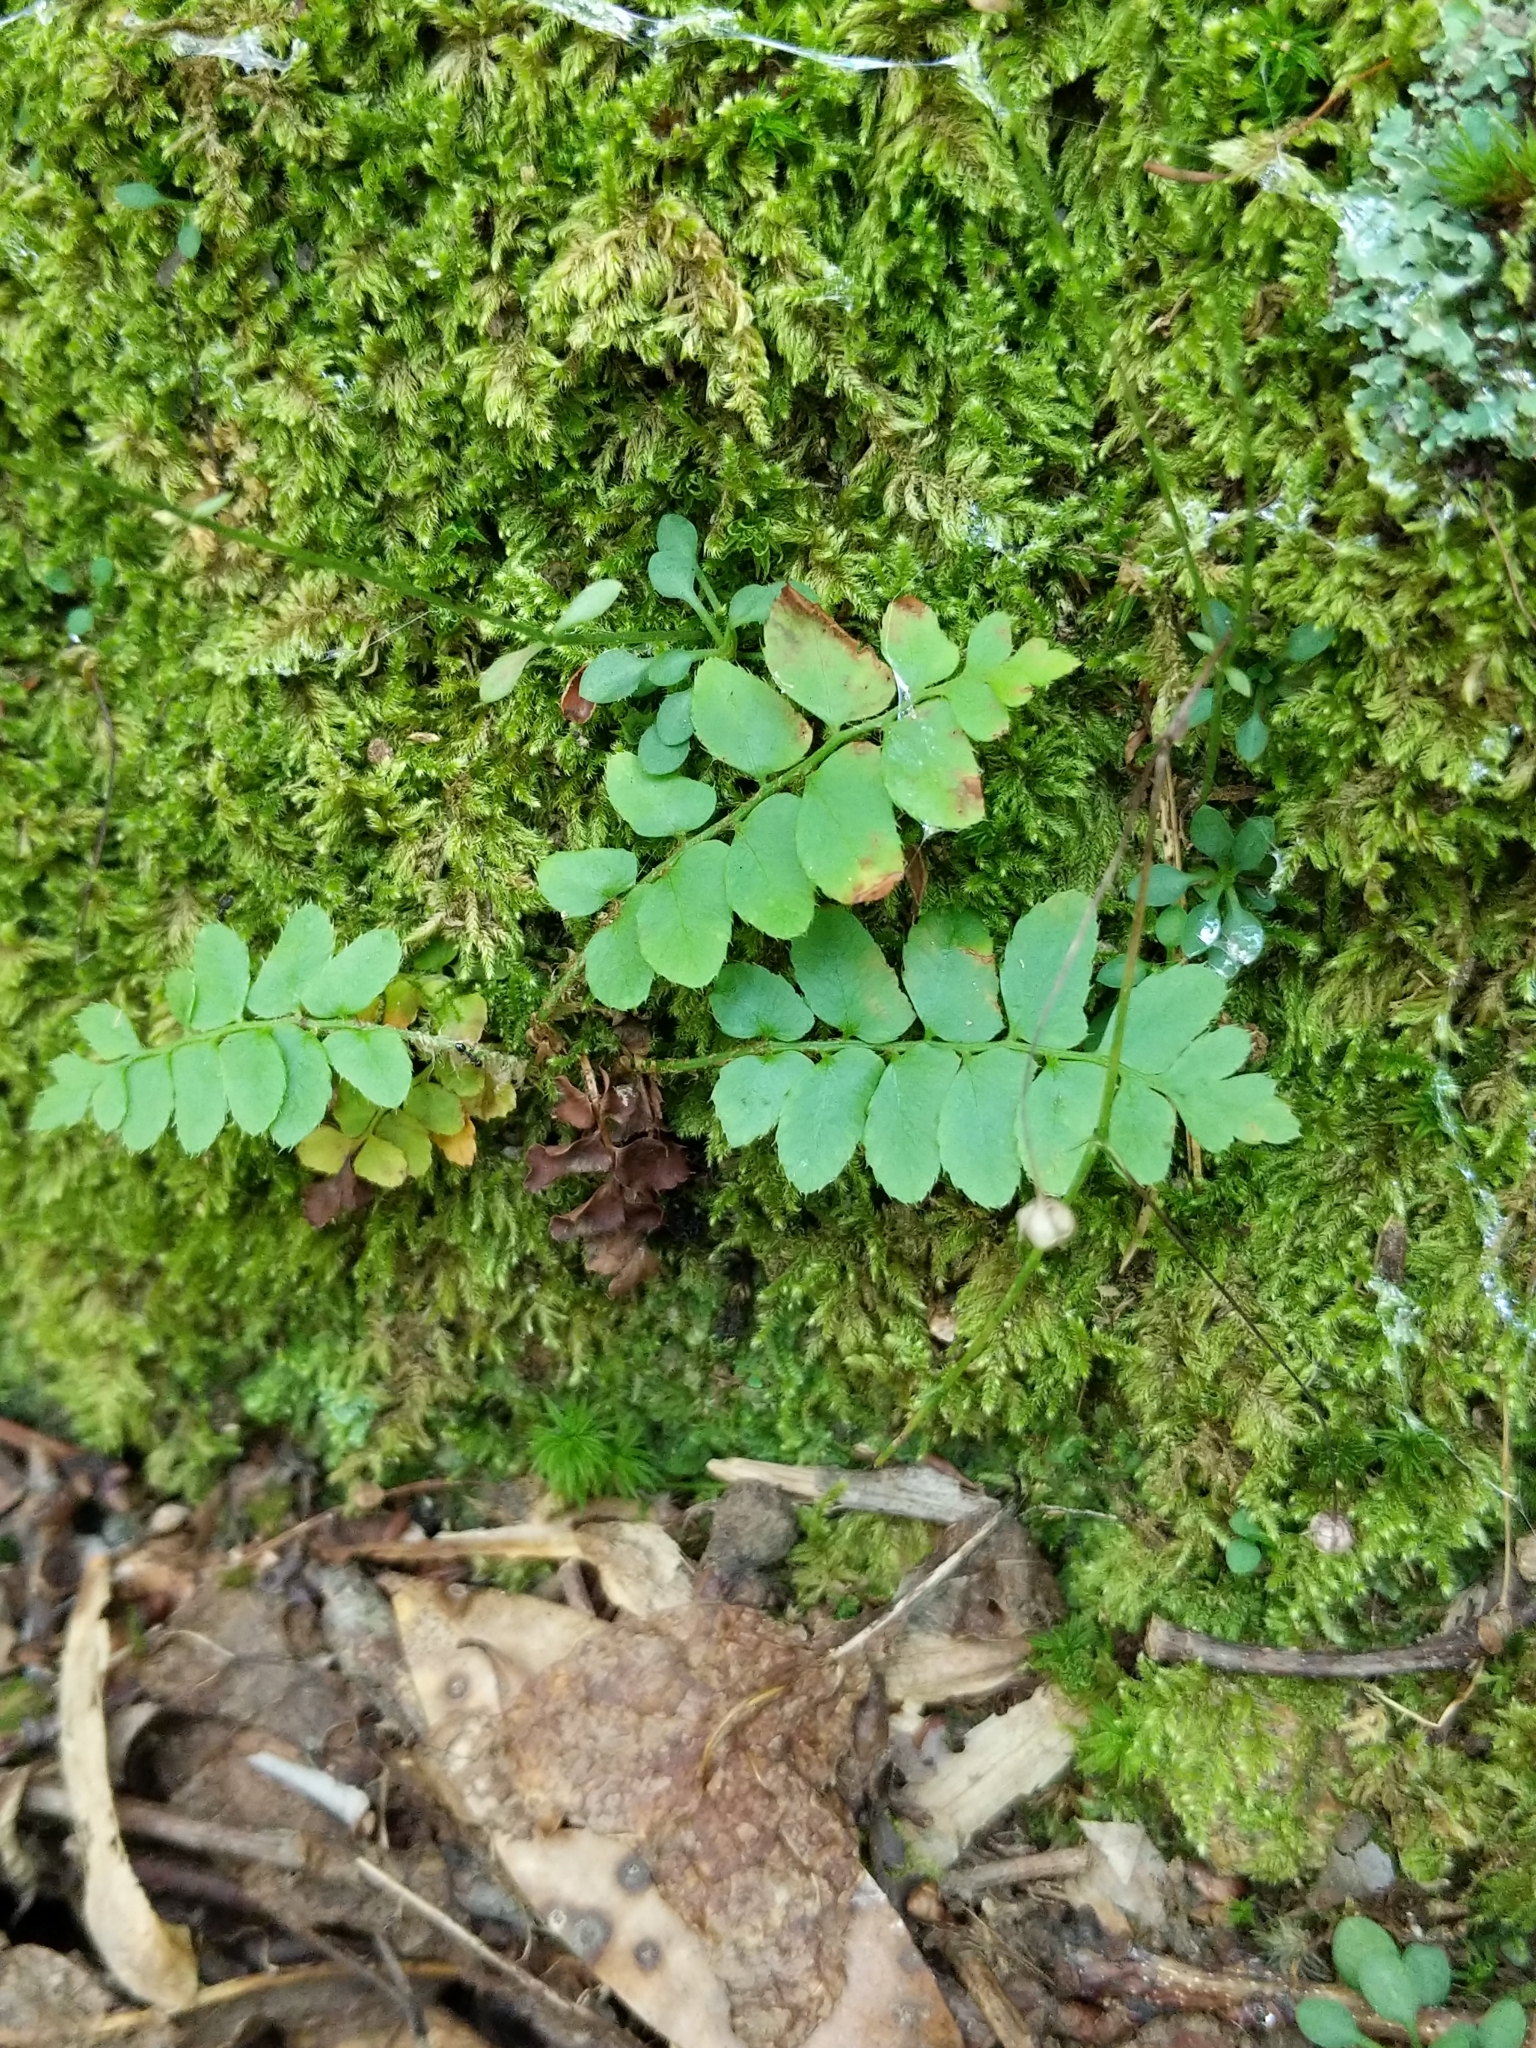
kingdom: Plantae
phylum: Tracheophyta
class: Polypodiopsida
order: Polypodiales
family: Dryopteridaceae
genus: Polystichum
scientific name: Polystichum acrostichoides
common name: Christmas fern
